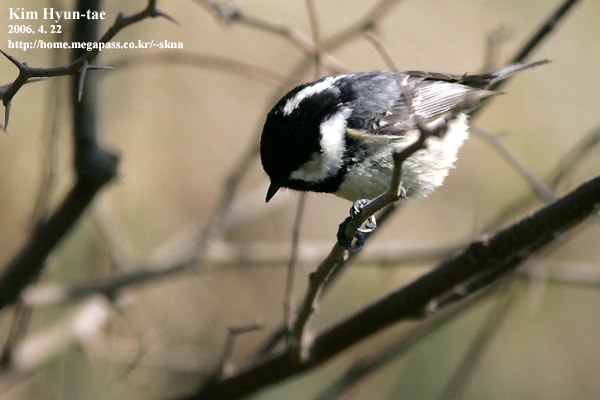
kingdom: Animalia
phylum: Chordata
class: Aves
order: Passeriformes
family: Paridae
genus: Periparus
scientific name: Periparus ater
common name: Coal tit
